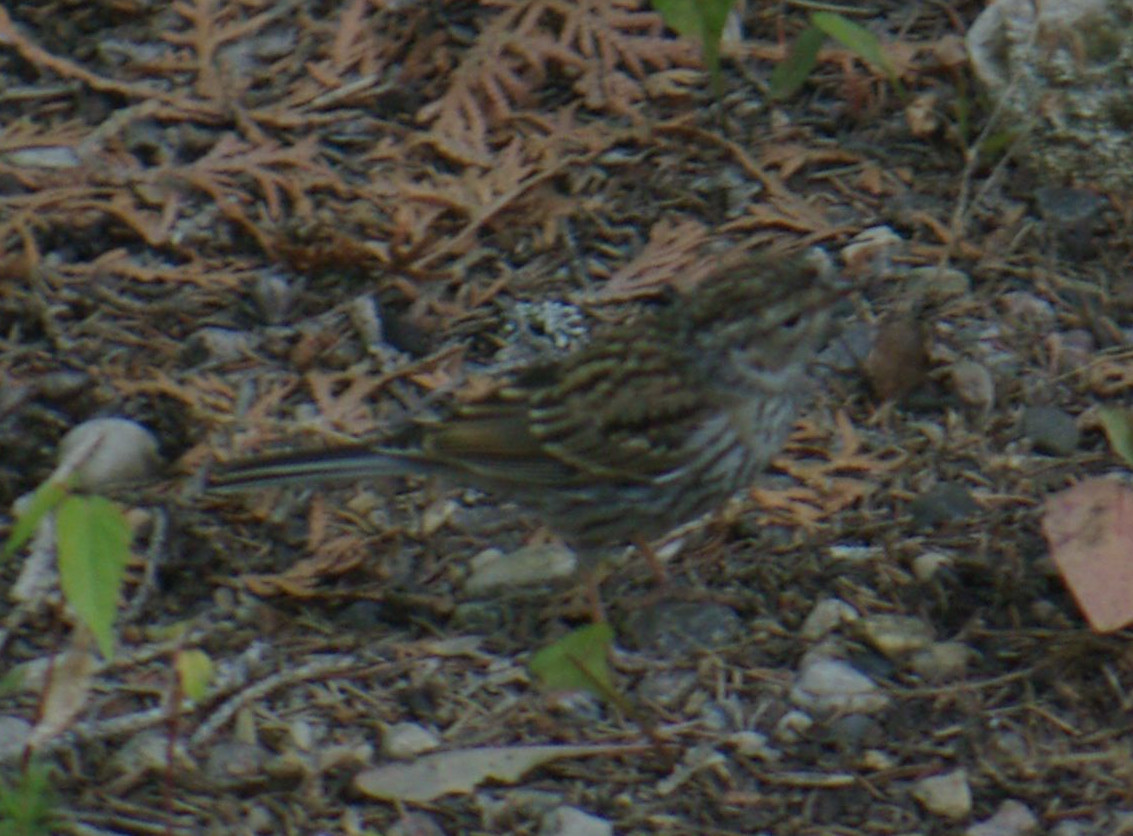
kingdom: Animalia
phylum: Chordata
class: Aves
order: Passeriformes
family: Passerellidae
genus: Spizella
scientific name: Spizella passerina
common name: Chipping sparrow
